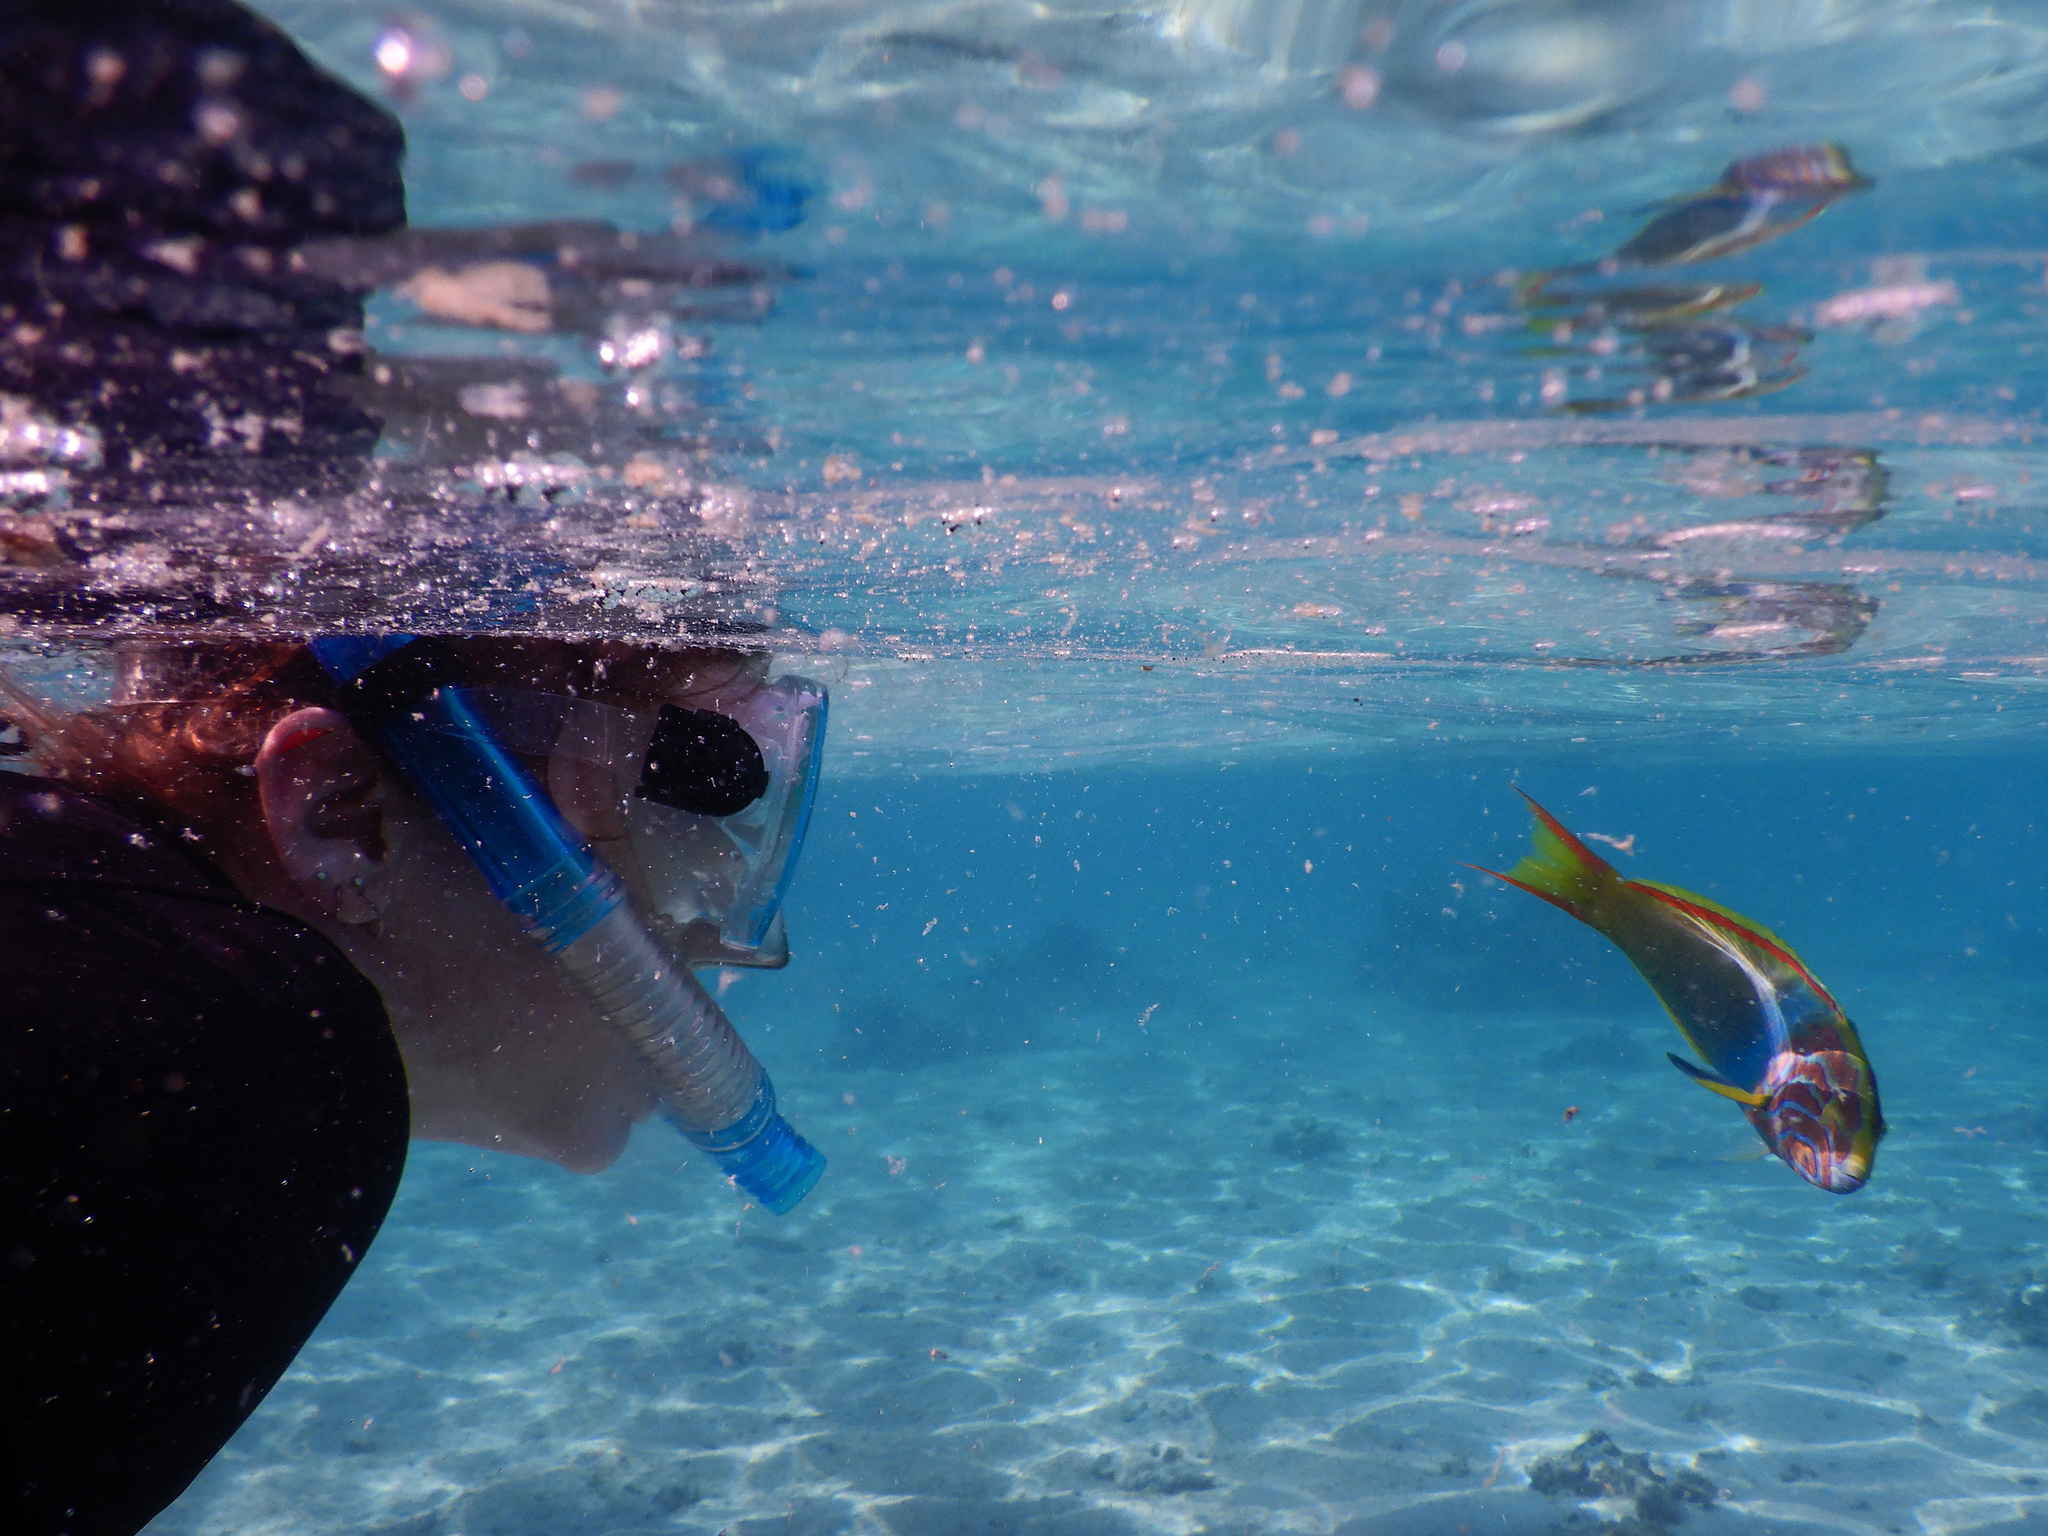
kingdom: Animalia
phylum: Chordata
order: Perciformes
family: Labridae
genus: Thalassoma
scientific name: Thalassoma lutescens
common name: Green moon wrasse
